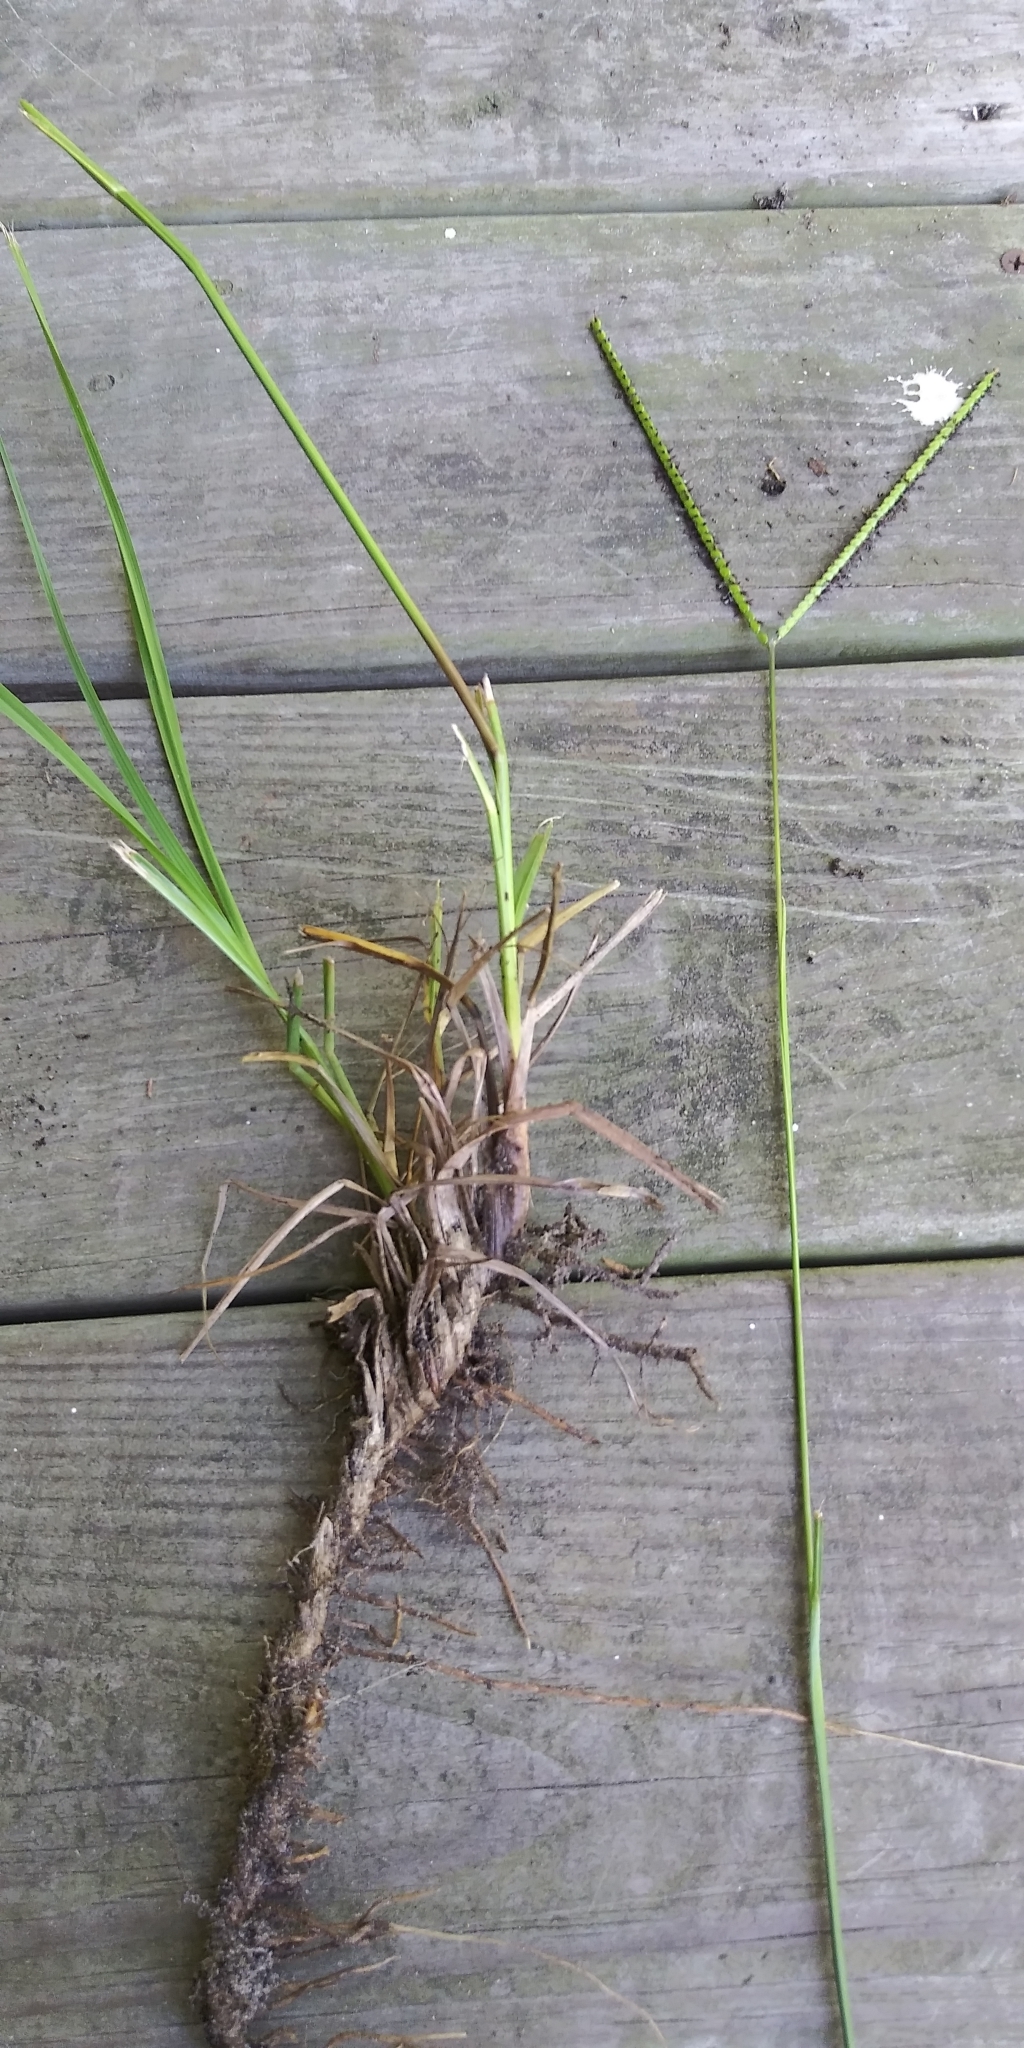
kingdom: Plantae
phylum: Tracheophyta
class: Liliopsida
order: Poales
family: Poaceae
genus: Paspalum
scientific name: Paspalum notatum
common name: Bahiagrass
